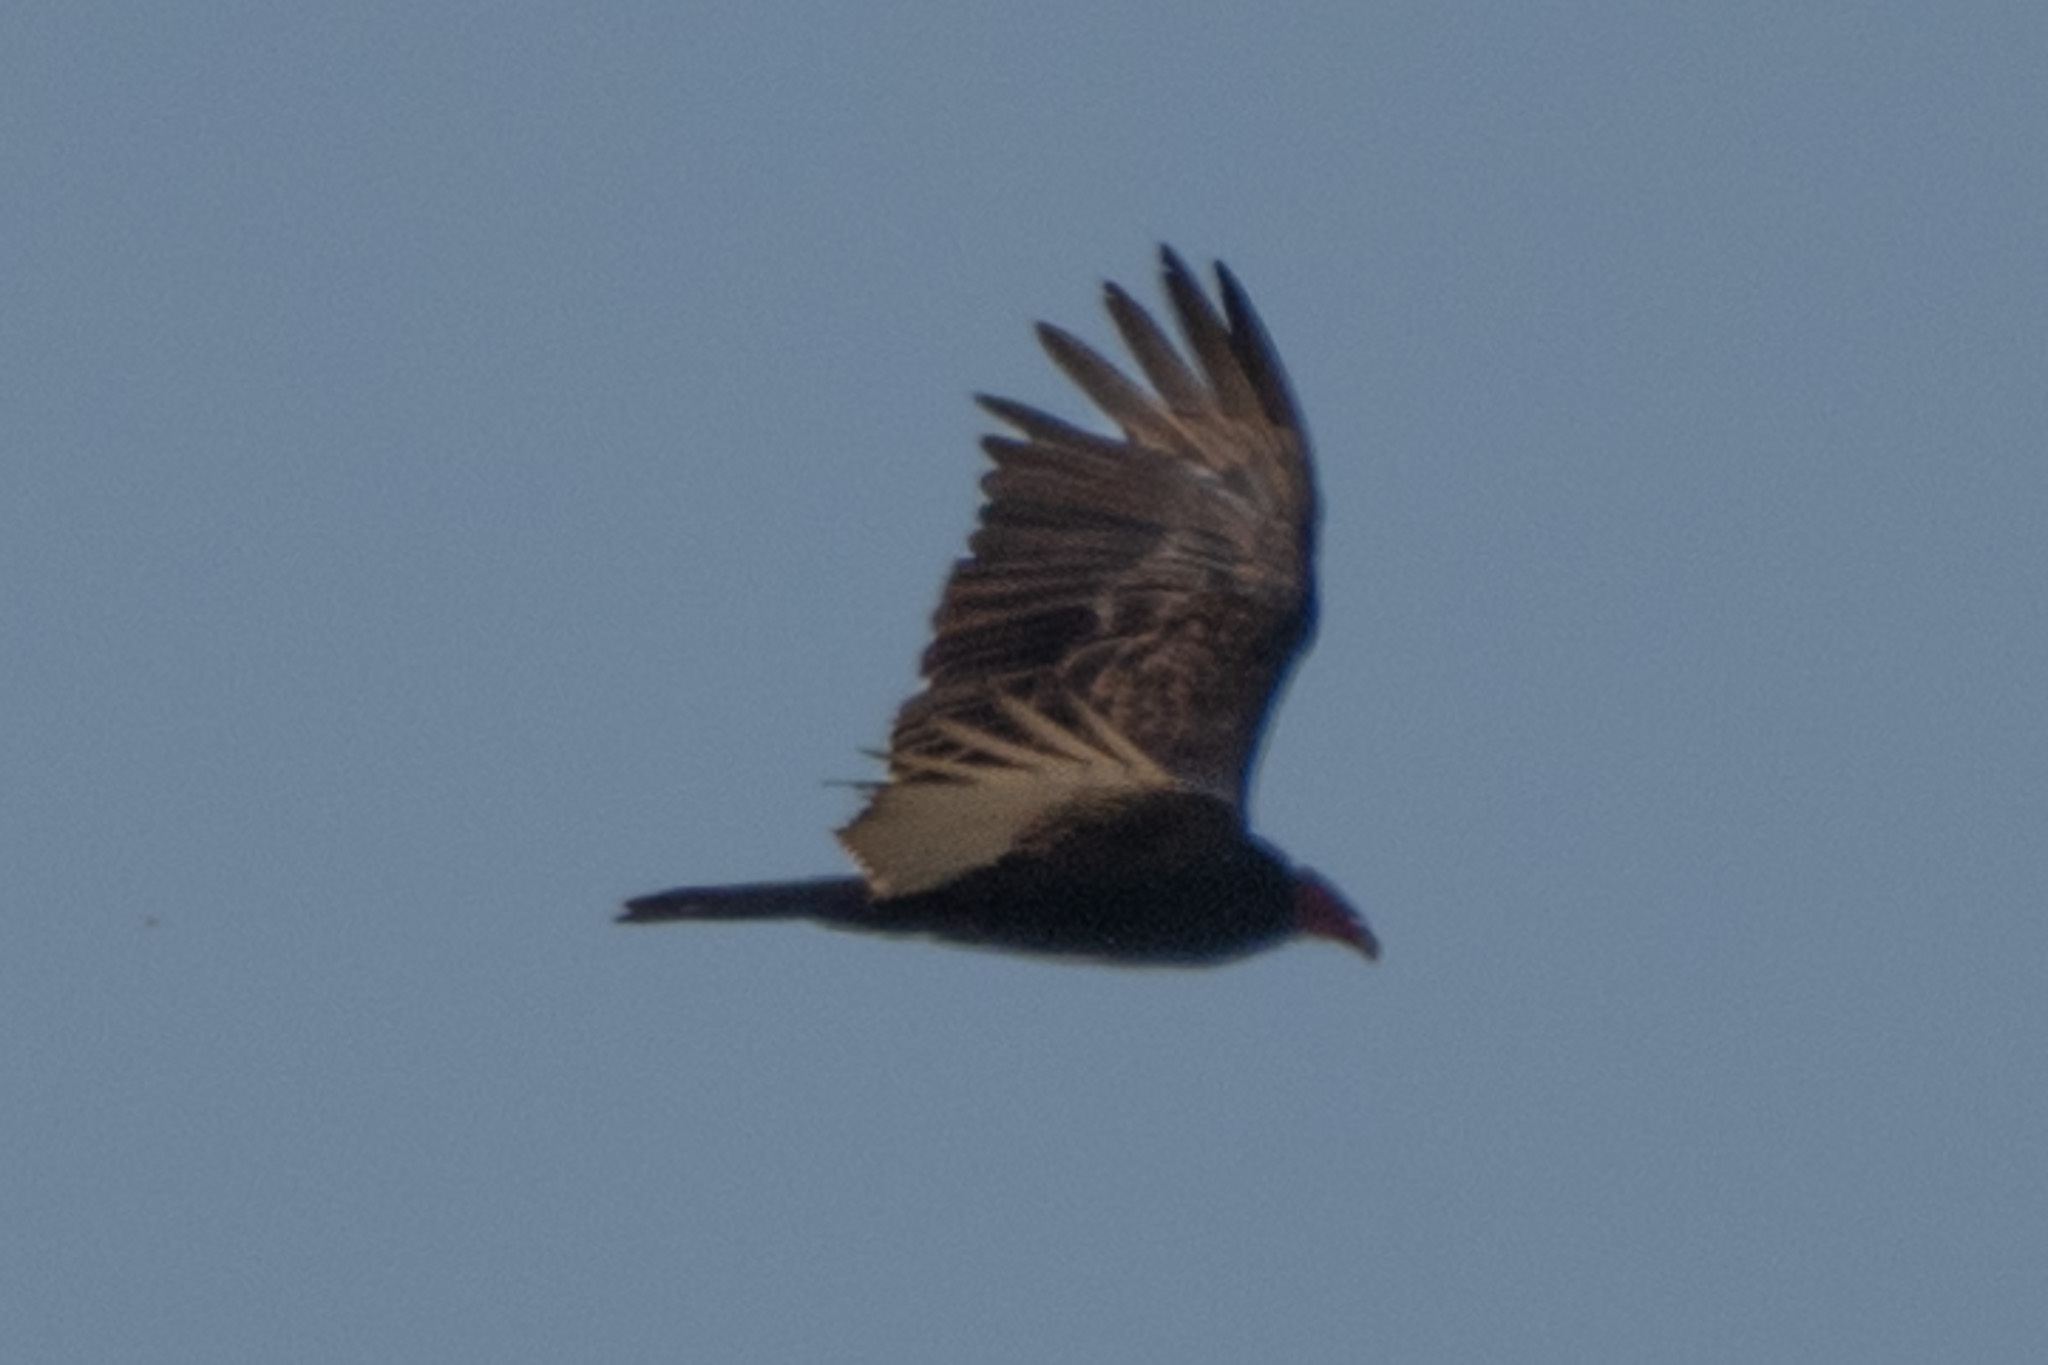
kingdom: Animalia
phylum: Chordata
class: Aves
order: Accipitriformes
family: Cathartidae
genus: Cathartes
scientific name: Cathartes aura
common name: Turkey vulture
